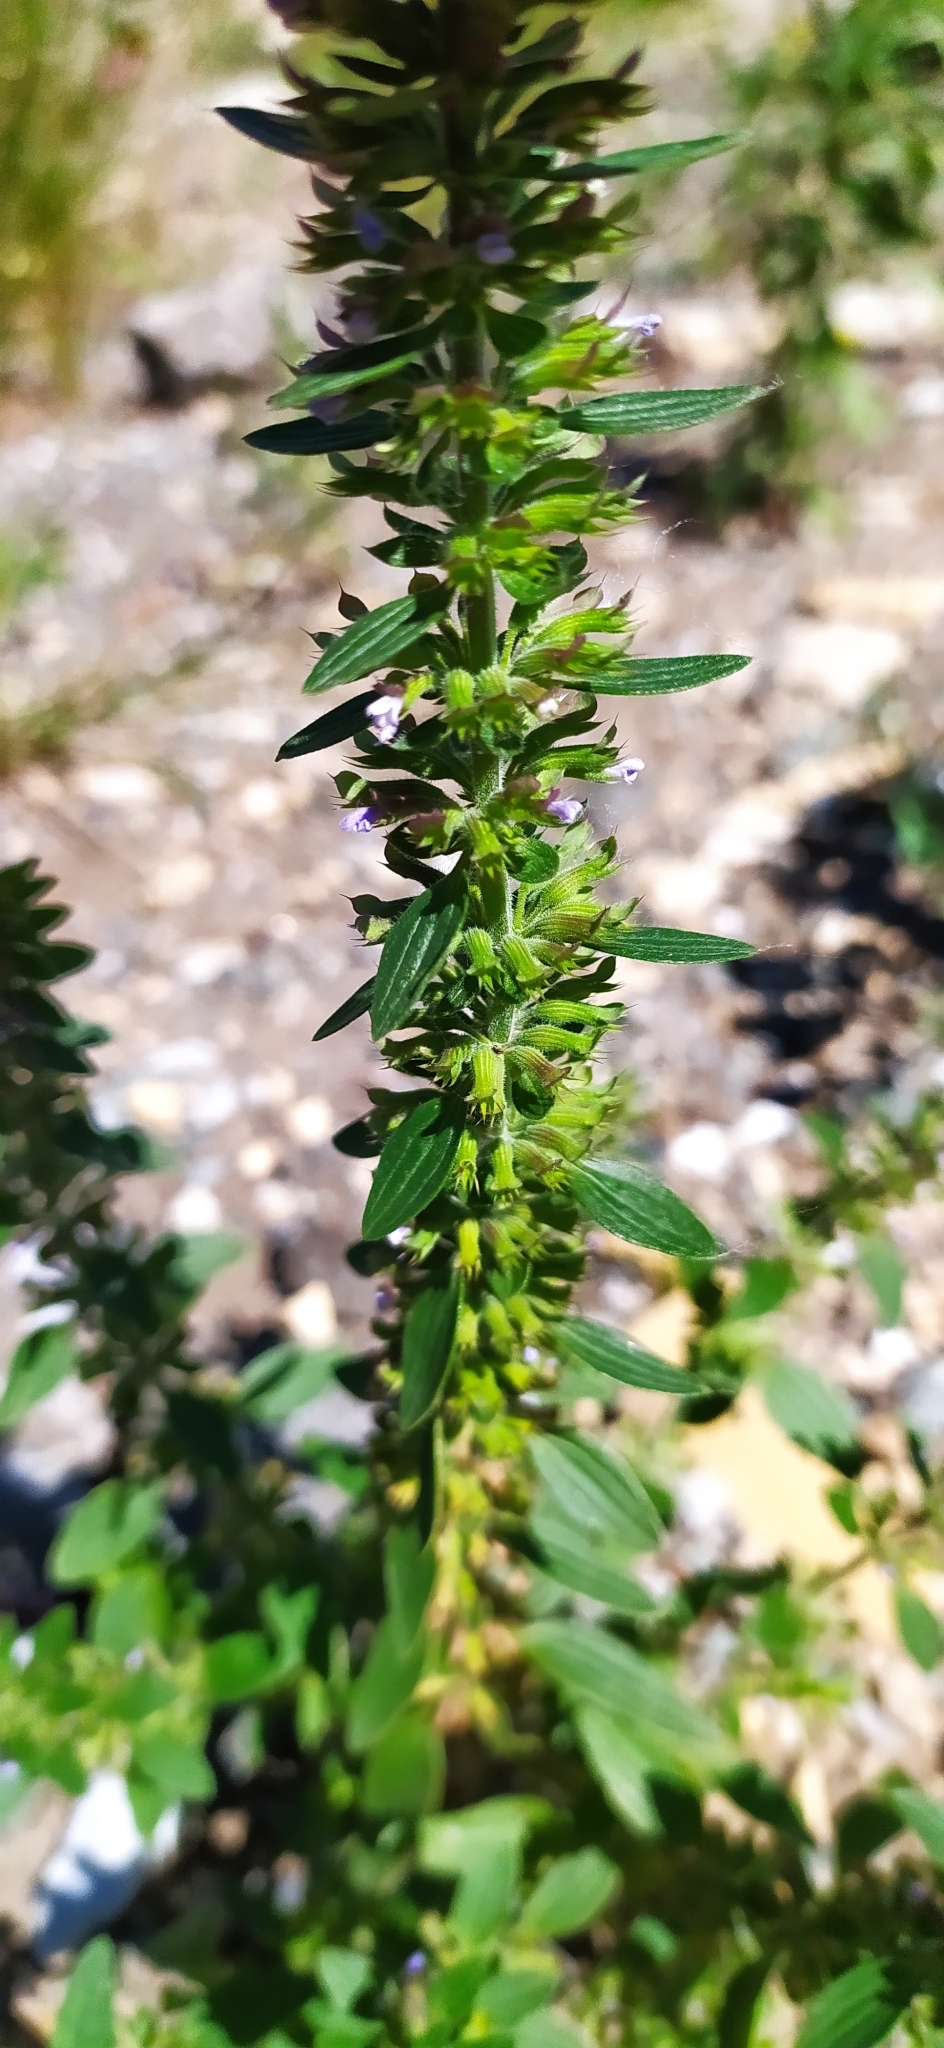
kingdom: Plantae
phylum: Tracheophyta
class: Magnoliopsida
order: Lamiales
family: Lamiaceae
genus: Dracocephalum
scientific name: Dracocephalum thymiflorum
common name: Thymeleaf dragonhead
